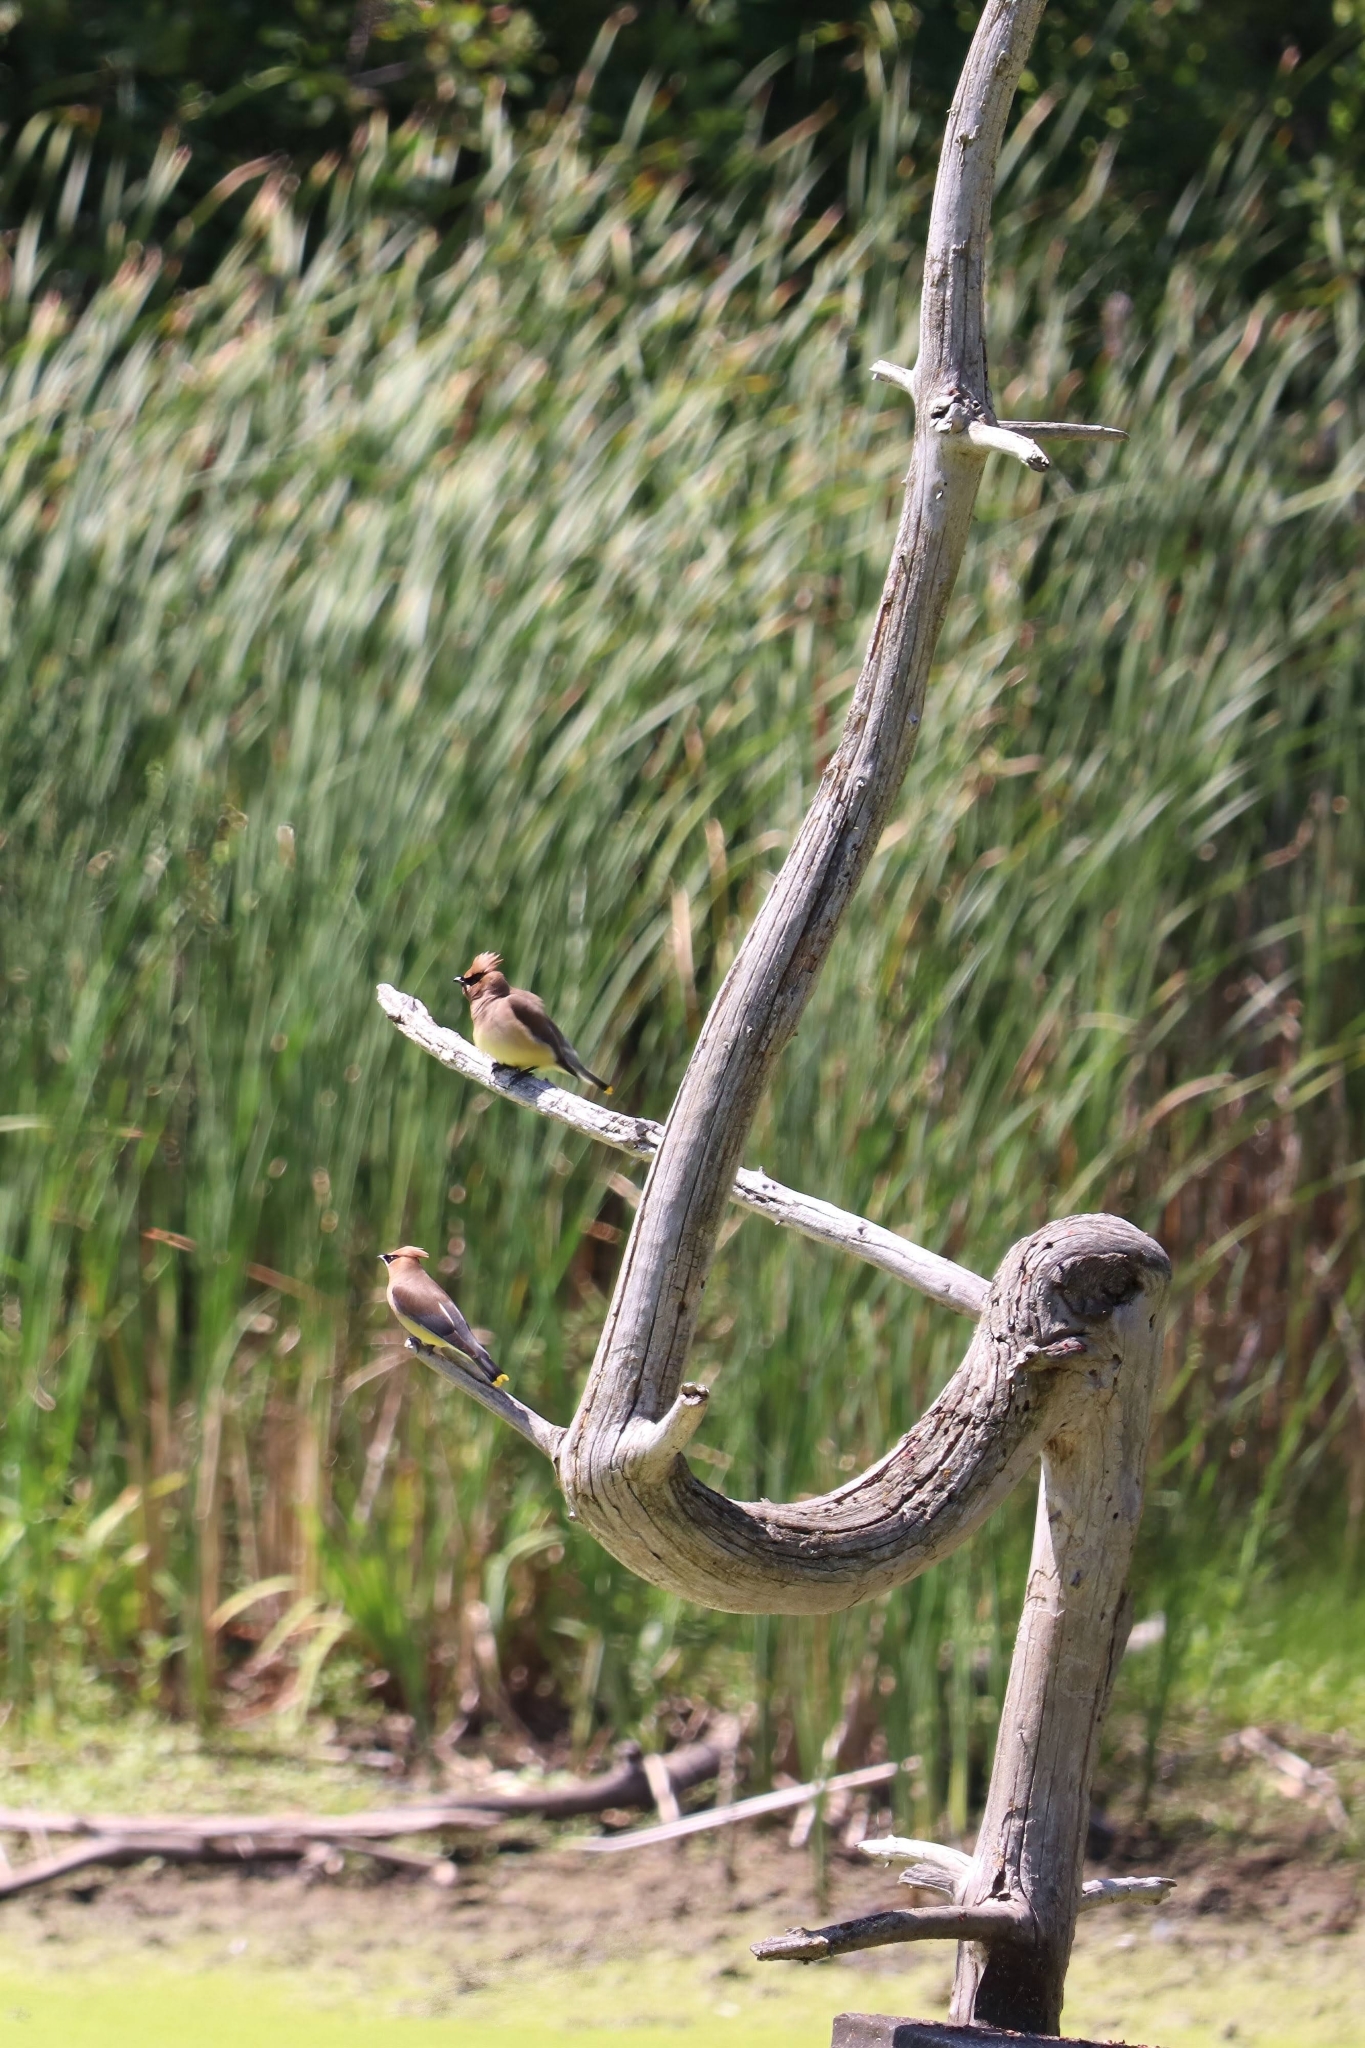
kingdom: Animalia
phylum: Chordata
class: Aves
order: Passeriformes
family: Bombycillidae
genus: Bombycilla
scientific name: Bombycilla cedrorum
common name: Cedar waxwing
